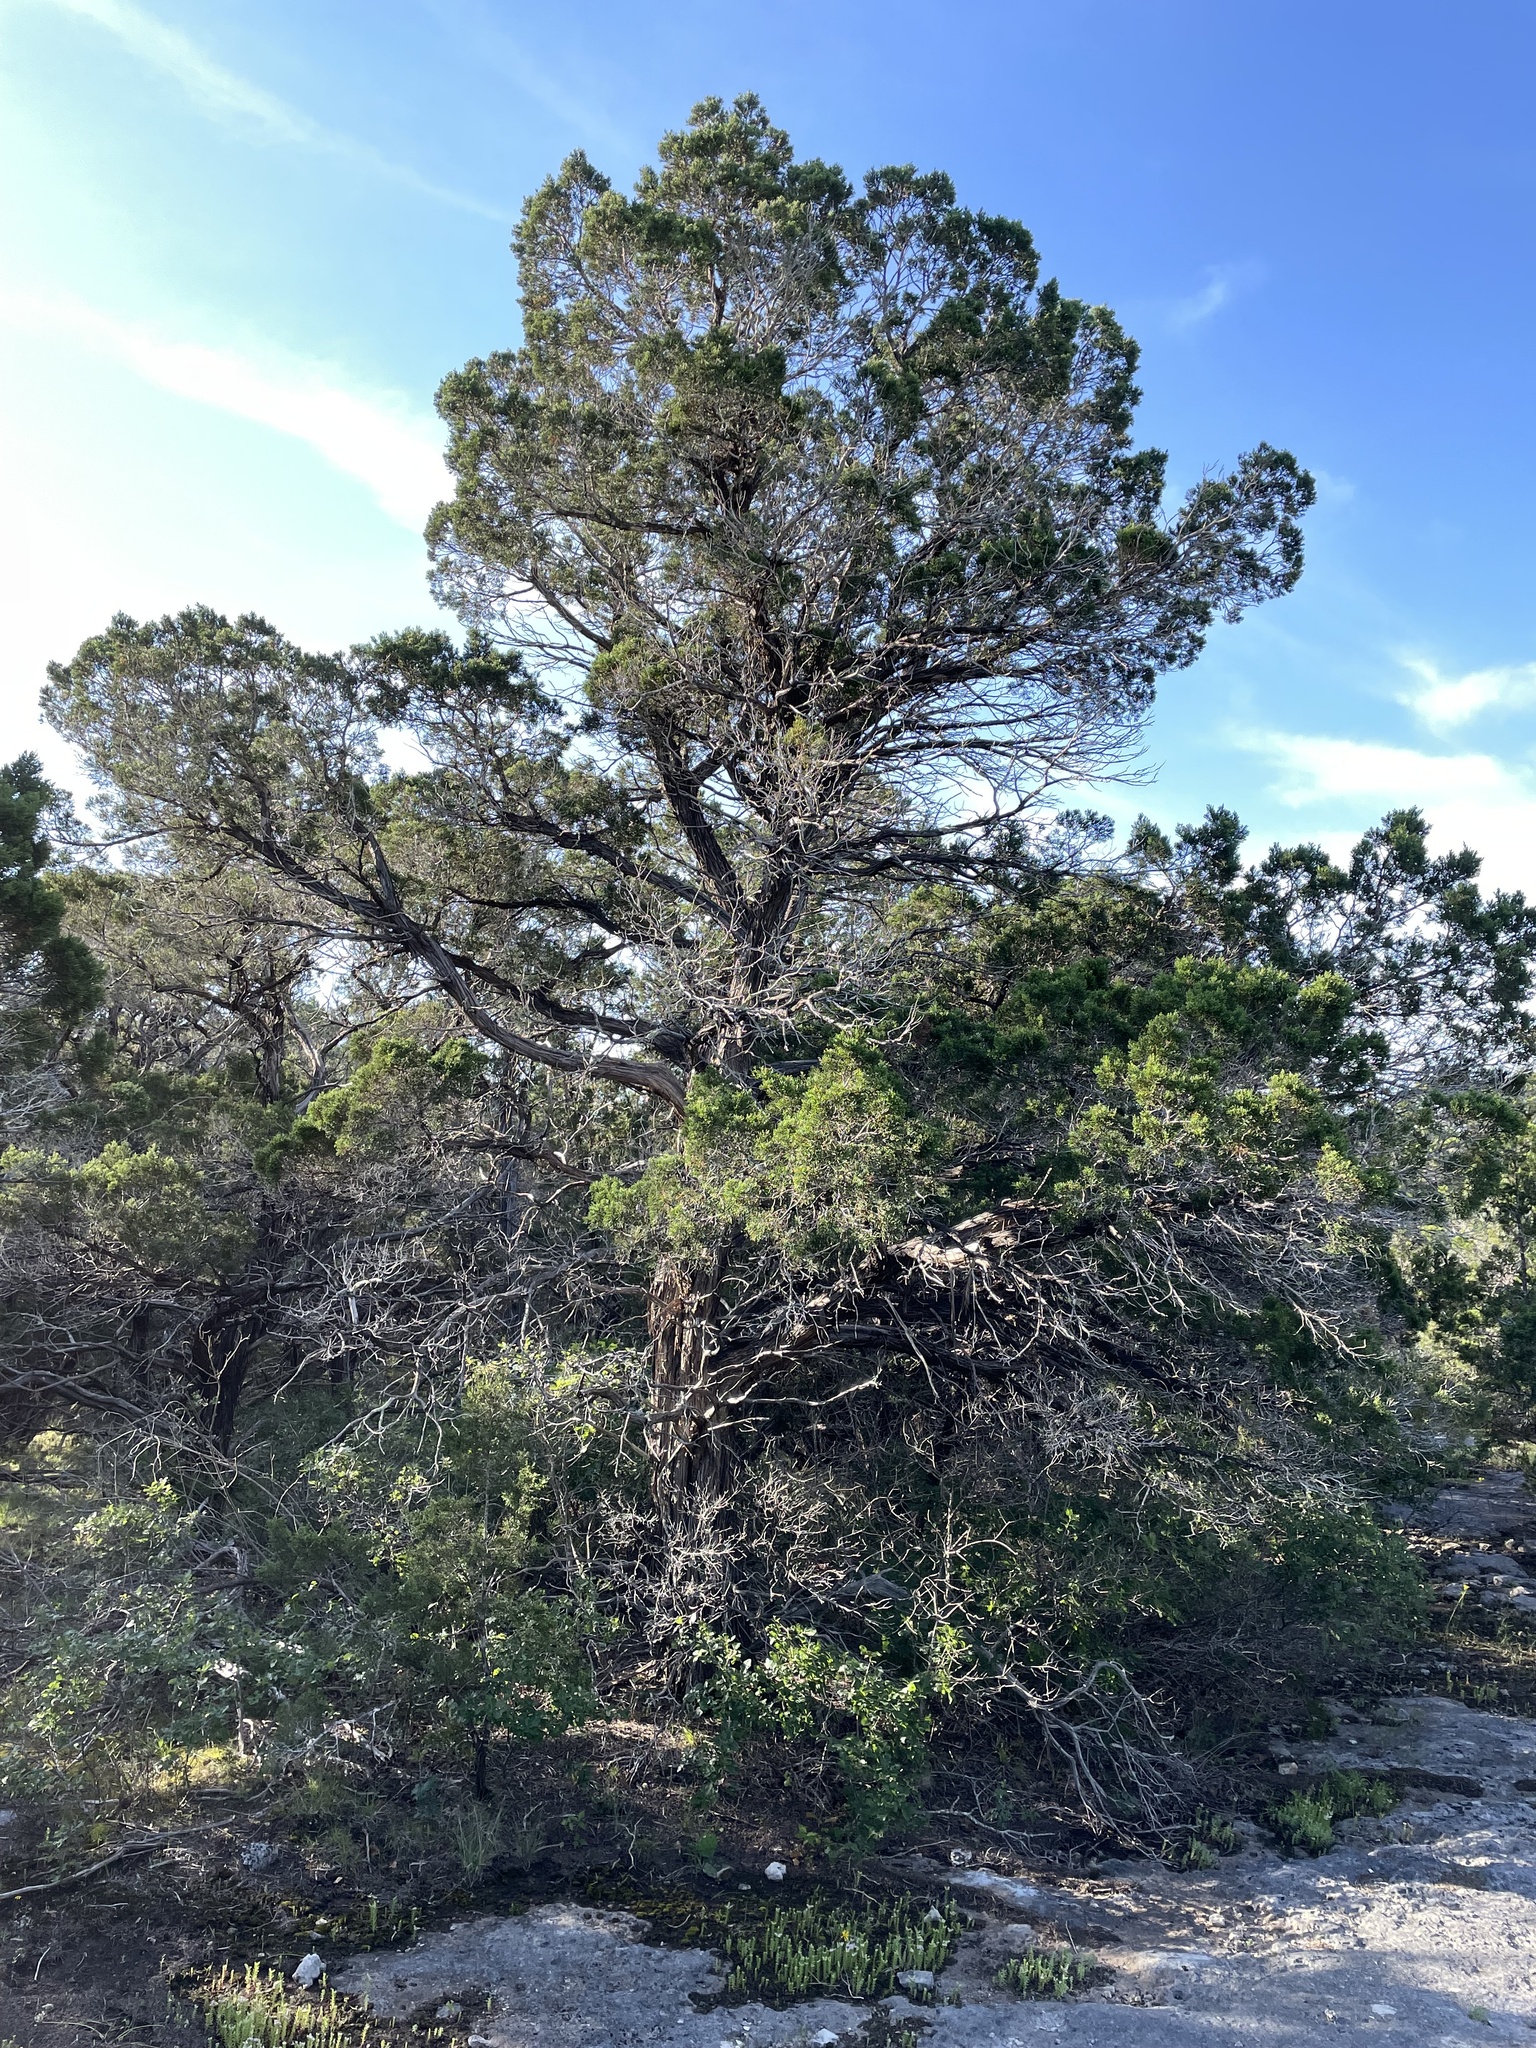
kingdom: Plantae
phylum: Tracheophyta
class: Pinopsida
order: Pinales
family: Cupressaceae
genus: Juniperus
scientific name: Juniperus ashei
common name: Mexican juniper
